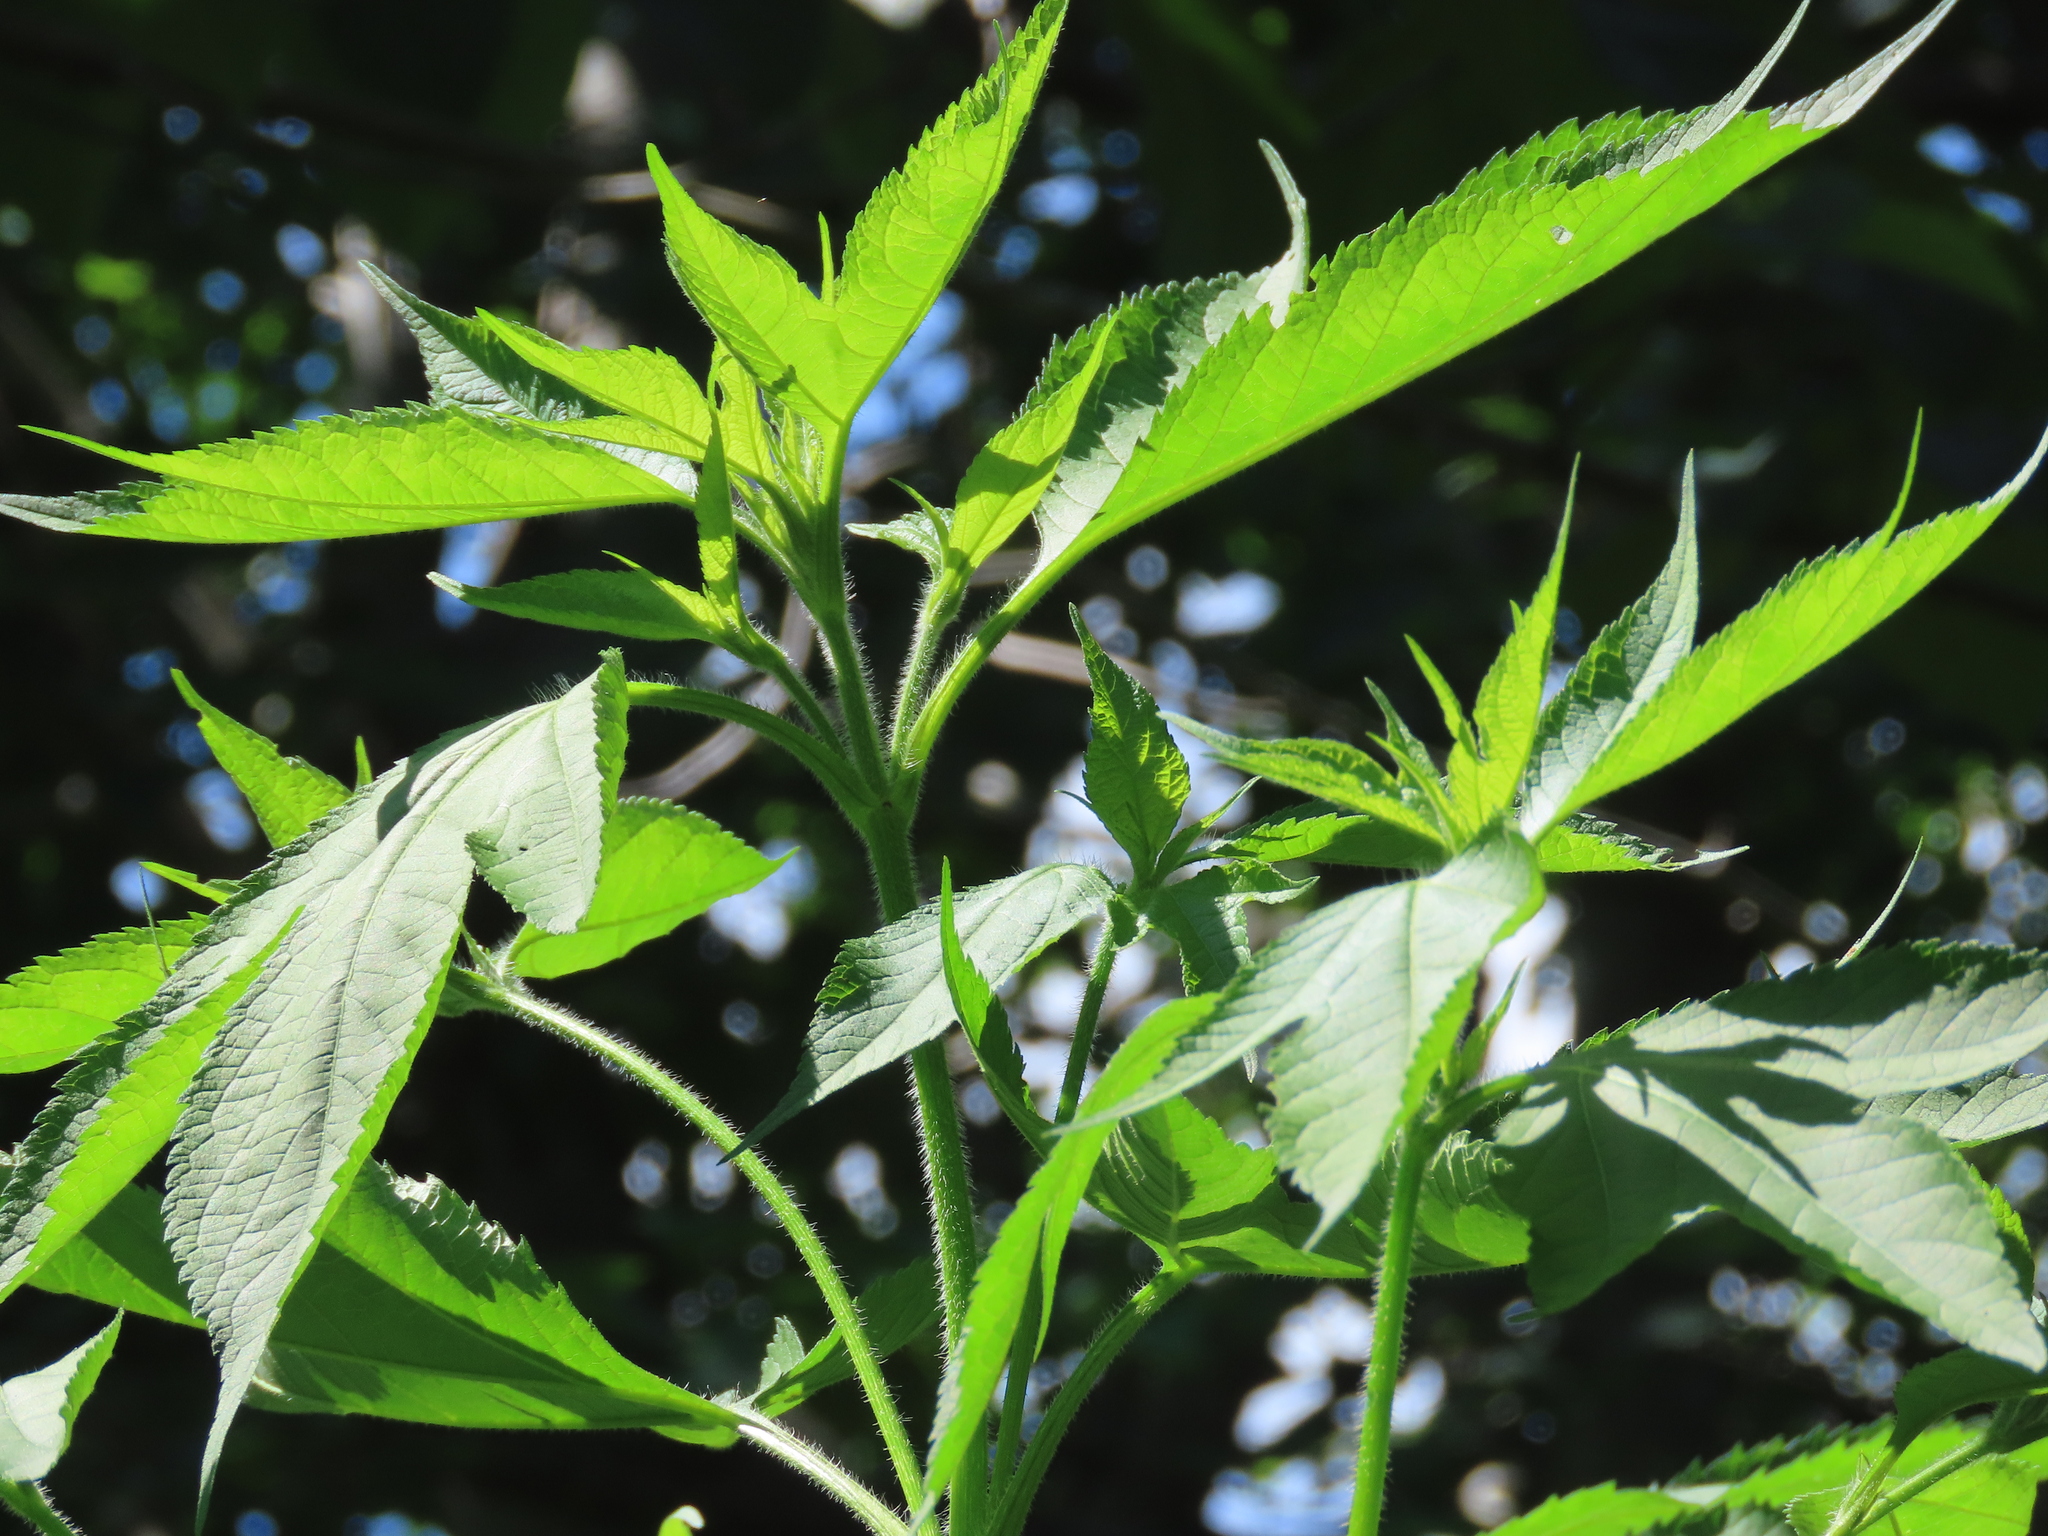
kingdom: Plantae
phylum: Tracheophyta
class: Magnoliopsida
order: Asterales
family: Asteraceae
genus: Ambrosia
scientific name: Ambrosia trifida
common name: Giant ragweed
